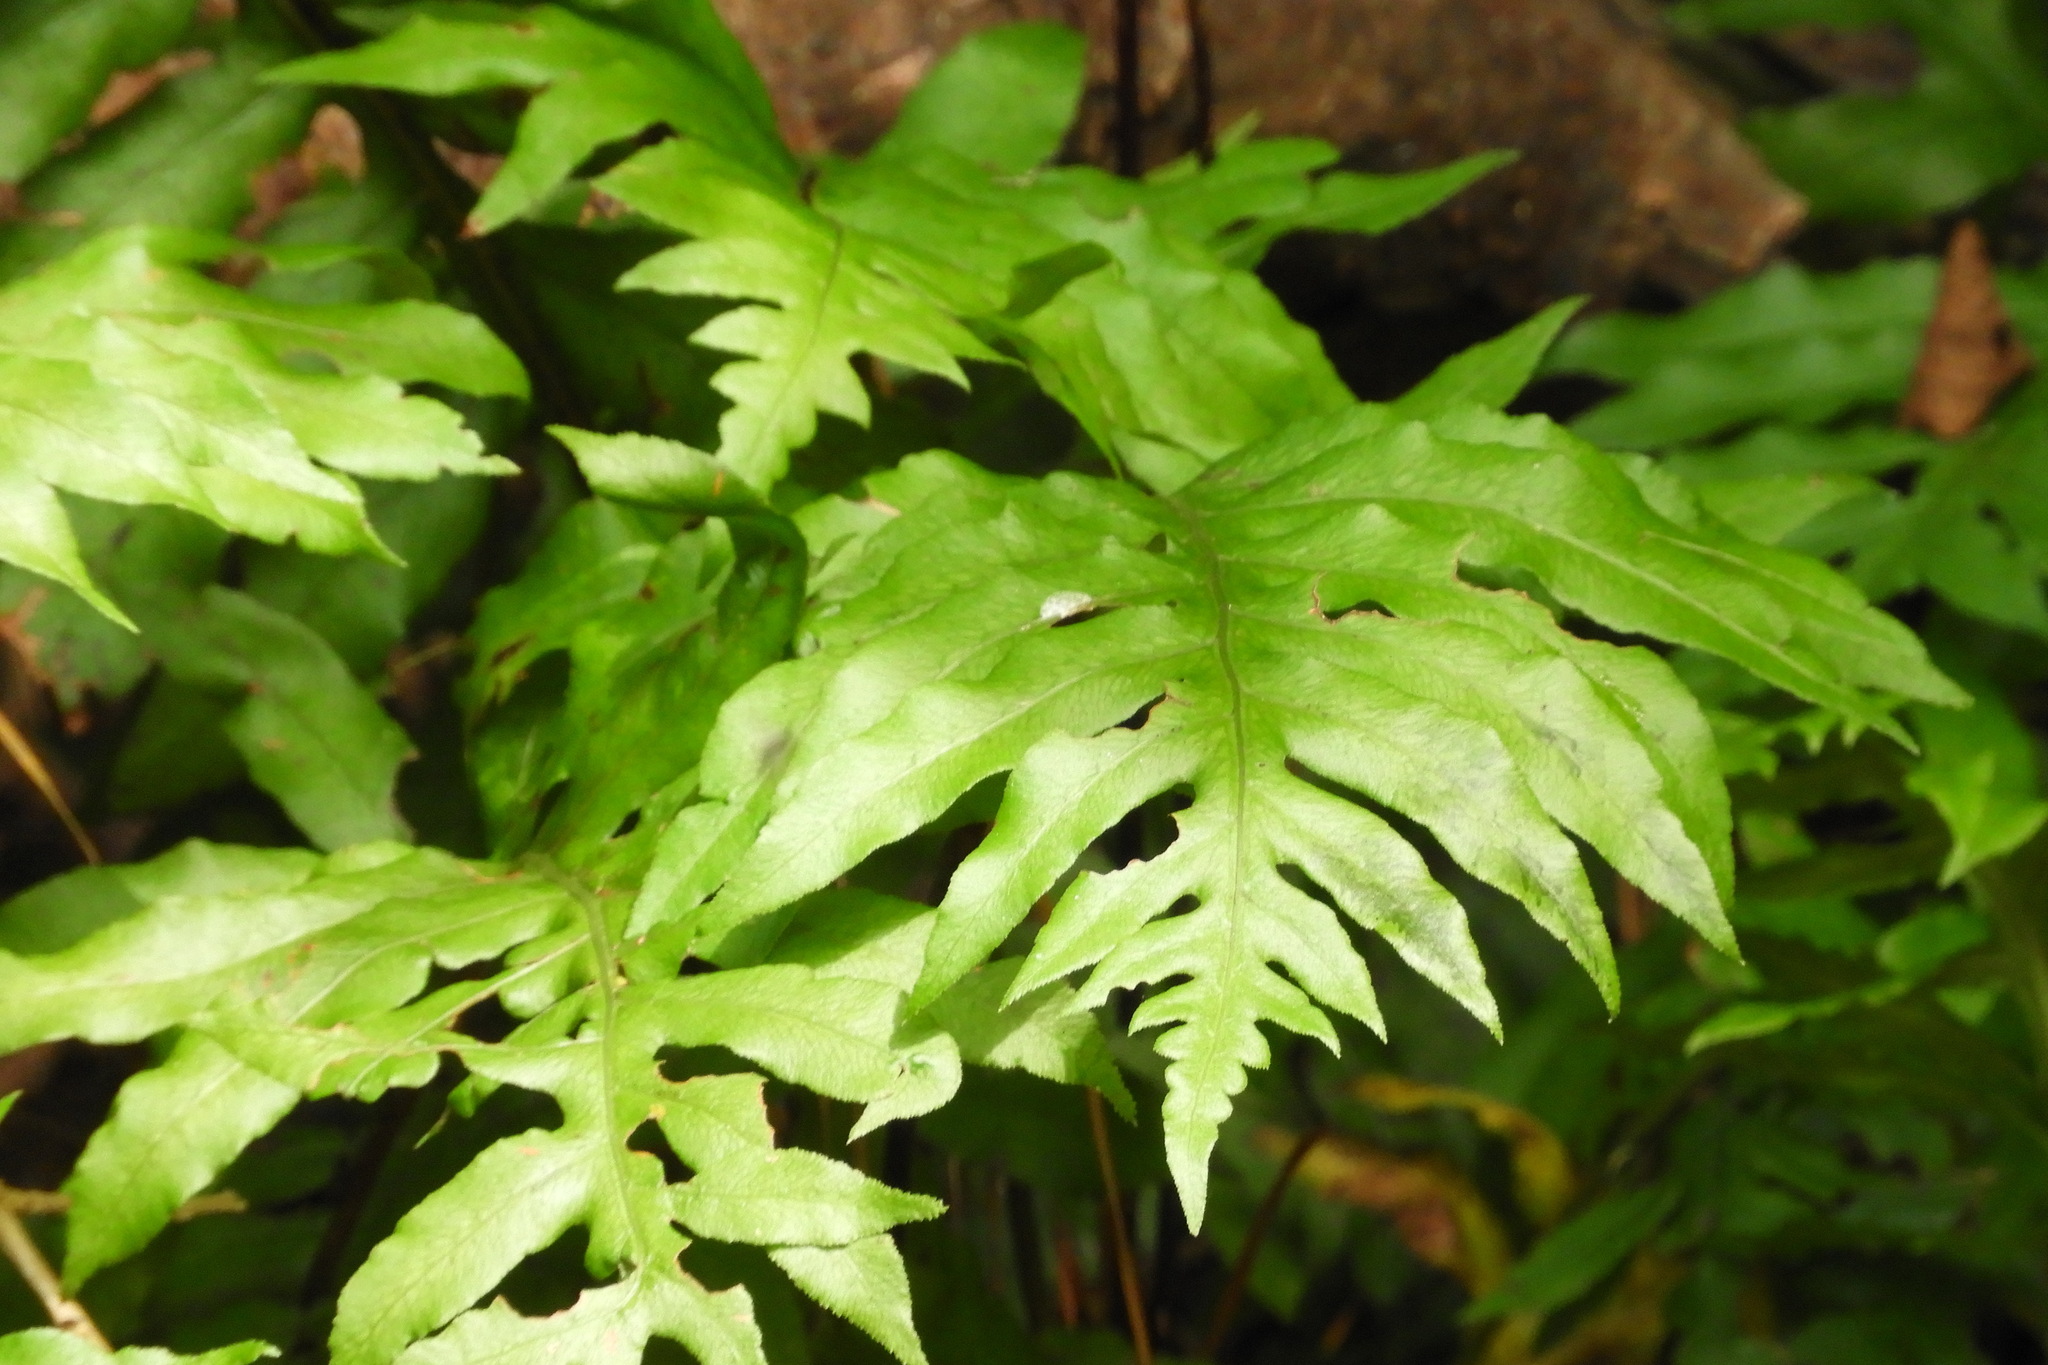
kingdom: Plantae
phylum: Tracheophyta
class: Polypodiopsida
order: Polypodiales
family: Blechnaceae
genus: Lorinseria
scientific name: Lorinseria areolata
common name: Dwarf chain fern
